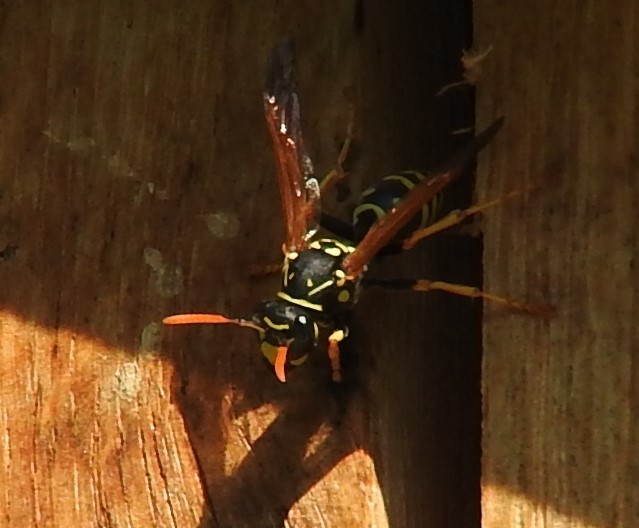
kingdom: Animalia
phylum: Arthropoda
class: Insecta
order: Hymenoptera
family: Eumenidae
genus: Polistes
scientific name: Polistes dominula
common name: Paper wasp
